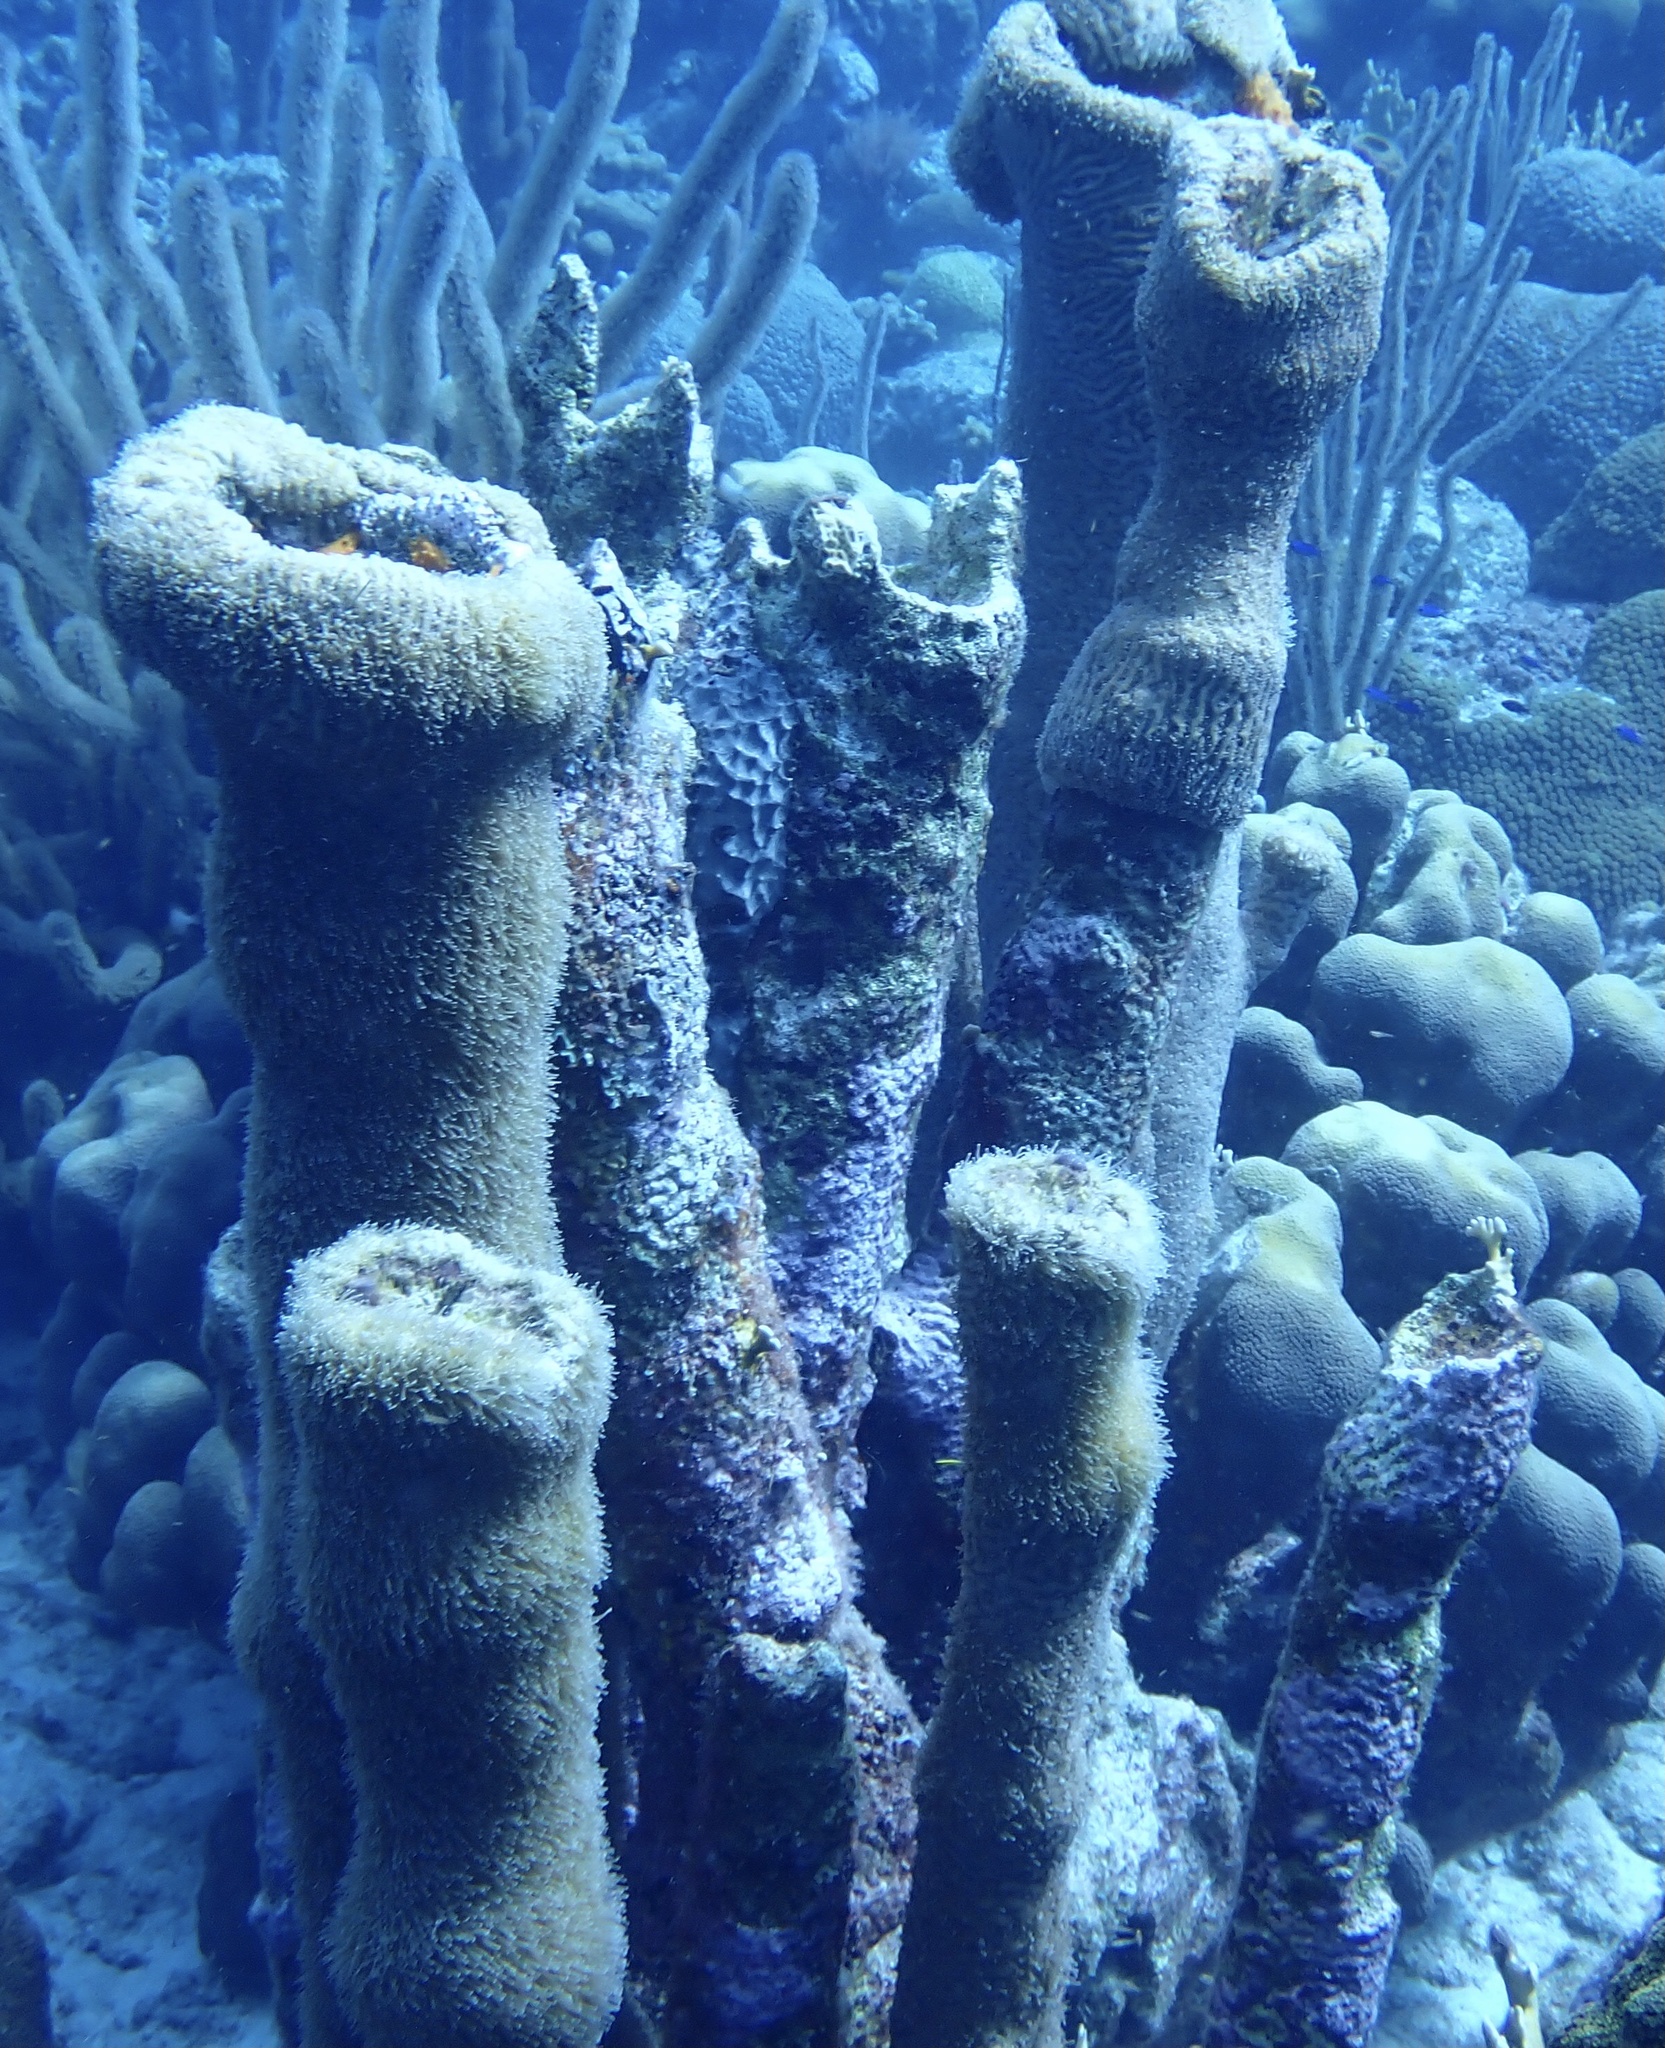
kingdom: Animalia
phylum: Cnidaria
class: Anthozoa
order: Scleractinia
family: Meandrinidae
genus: Dendrogyra
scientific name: Dendrogyra cylindrus
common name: Pillar coral
